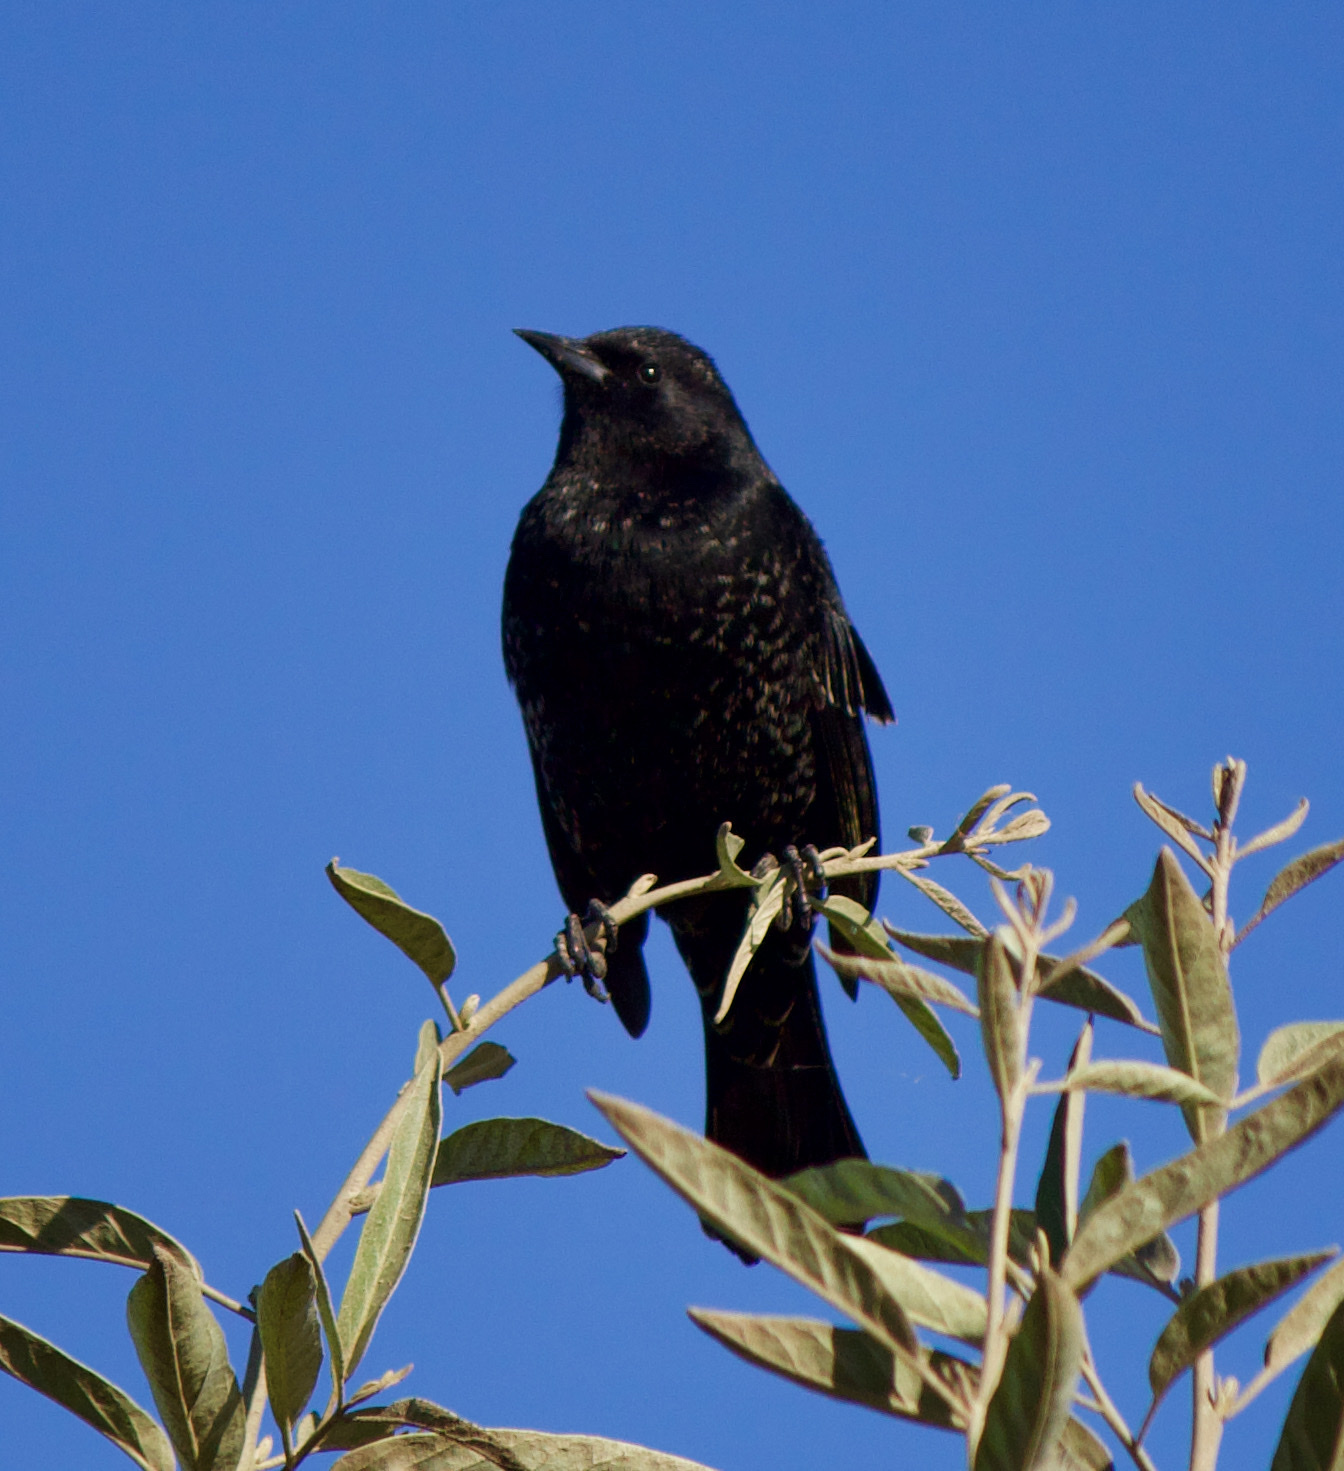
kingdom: Animalia
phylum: Chordata
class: Aves
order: Passeriformes
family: Icteridae
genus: Curaeus
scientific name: Curaeus curaeus
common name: Austral blackbird
